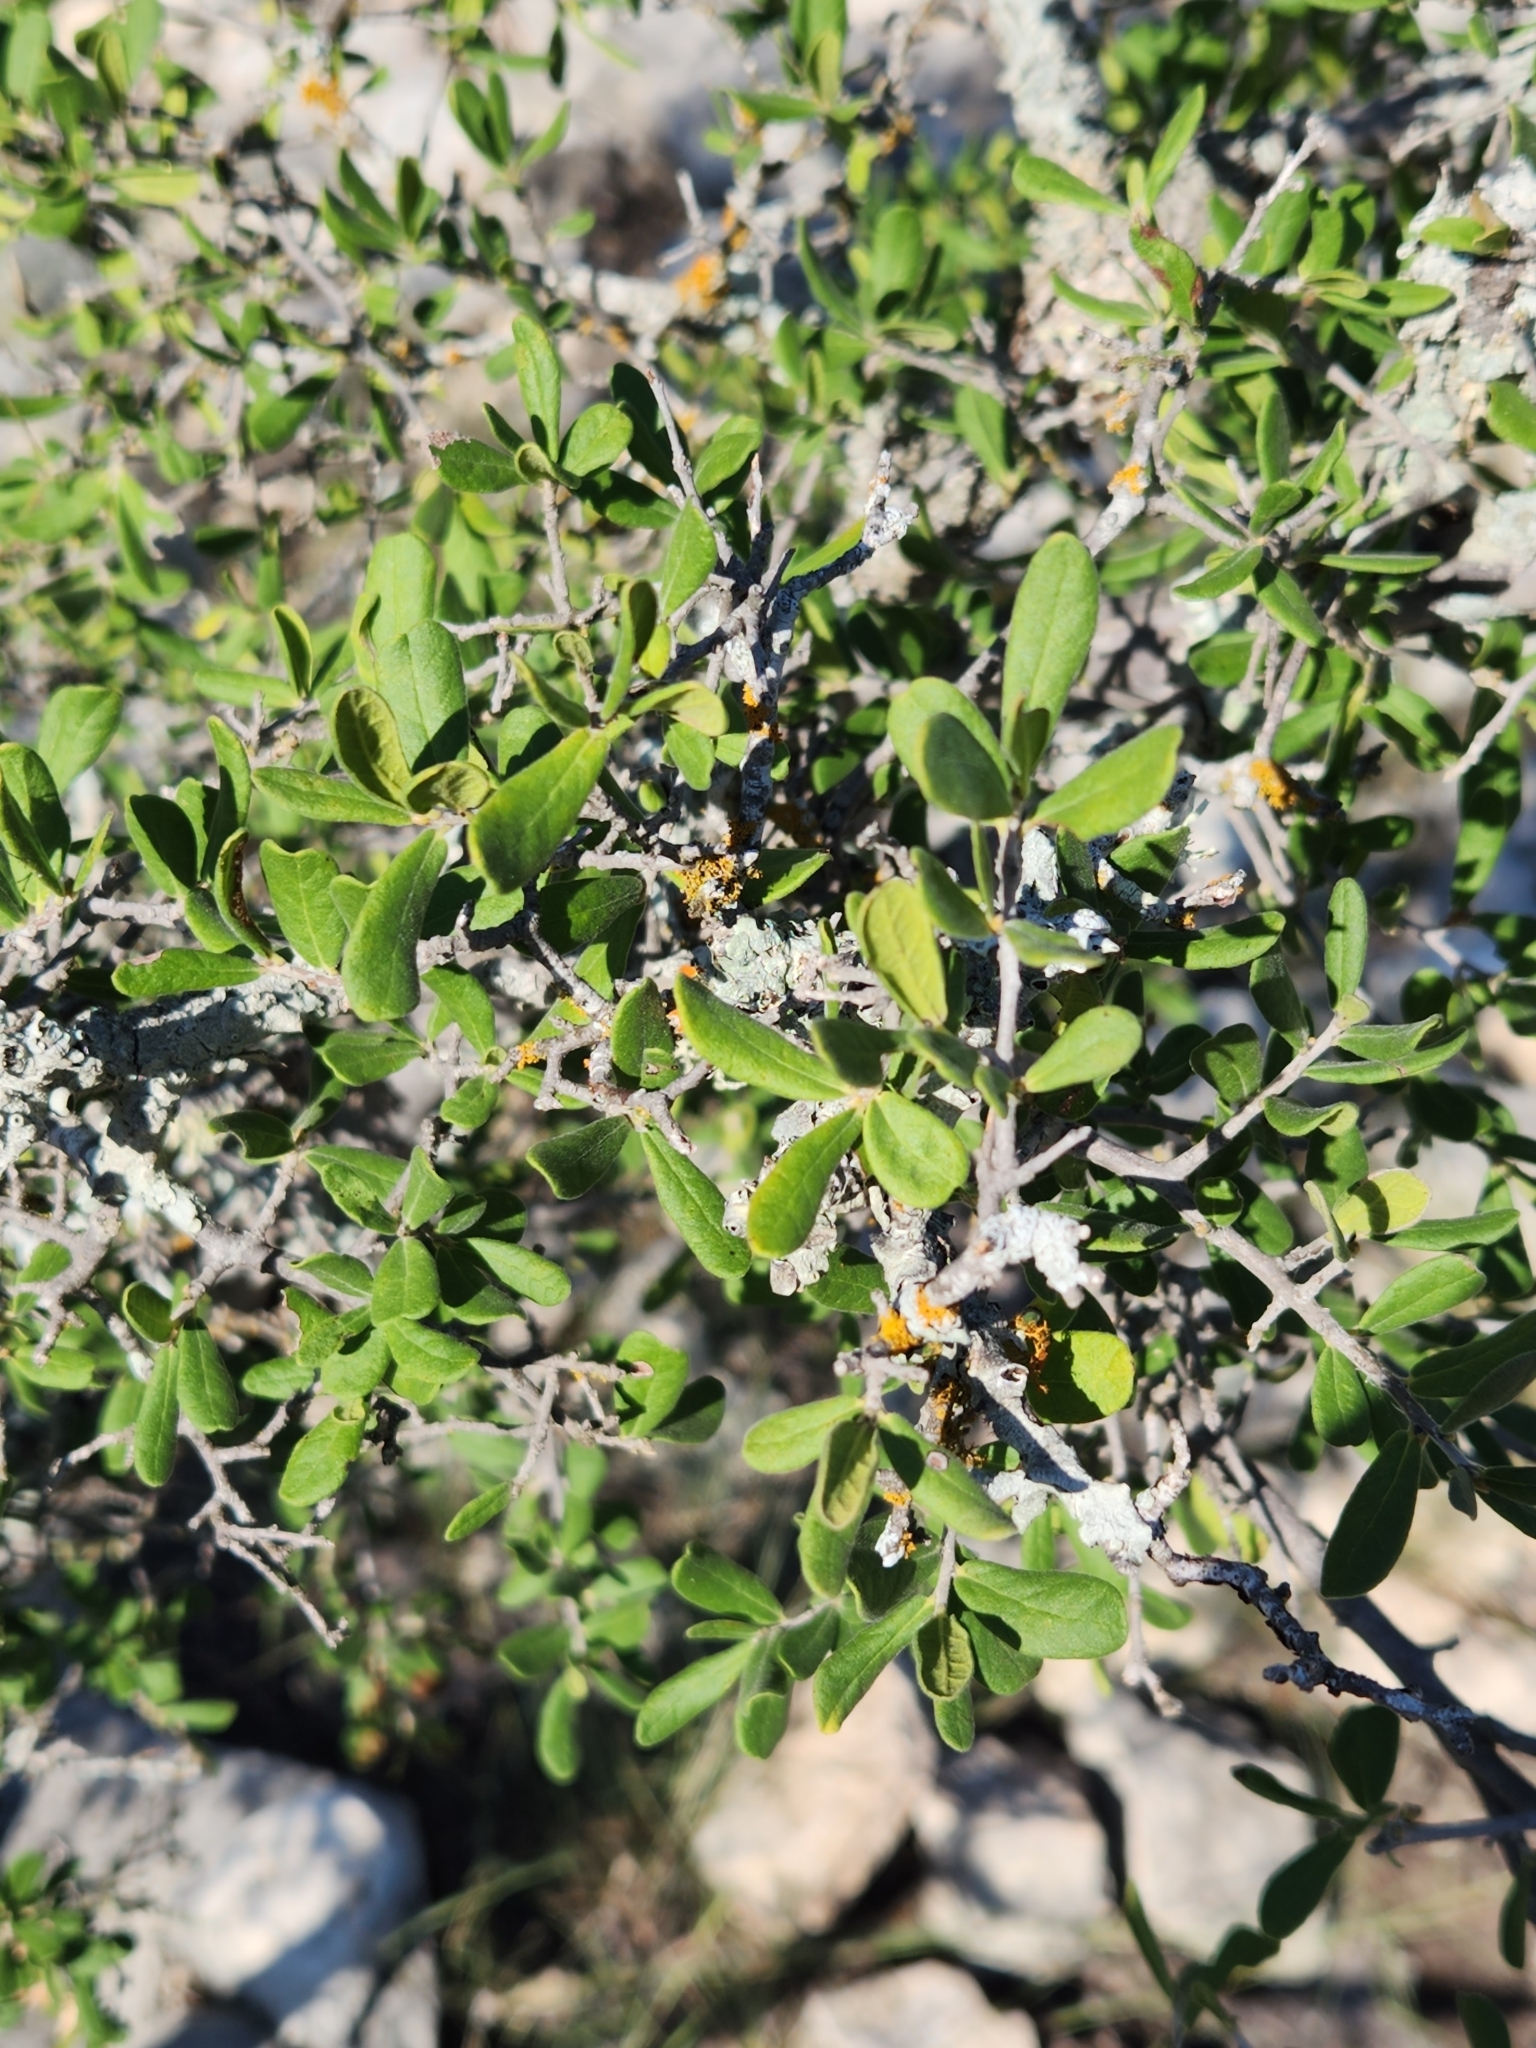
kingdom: Plantae
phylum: Tracheophyta
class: Magnoliopsida
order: Ericales
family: Ebenaceae
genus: Diospyros
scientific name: Diospyros texana
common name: Texas persimmon
